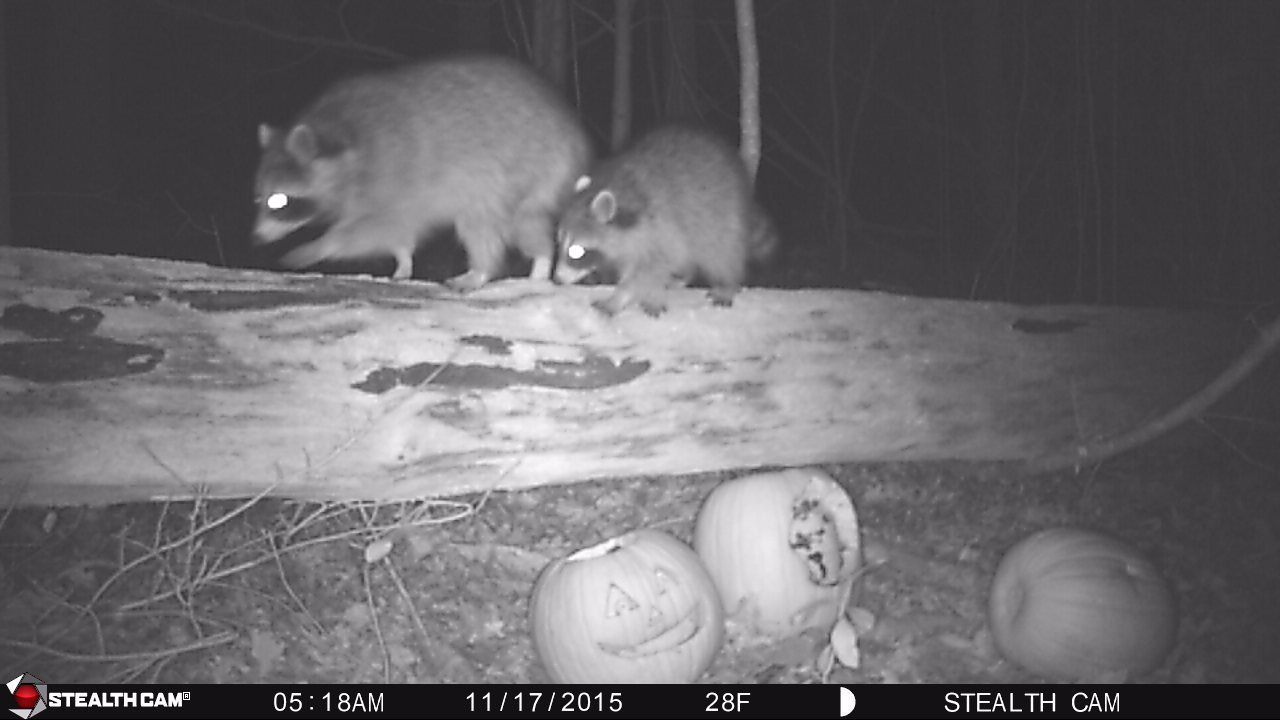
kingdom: Animalia
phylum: Chordata
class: Mammalia
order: Carnivora
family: Procyonidae
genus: Procyon
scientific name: Procyon lotor
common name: Raccoon
